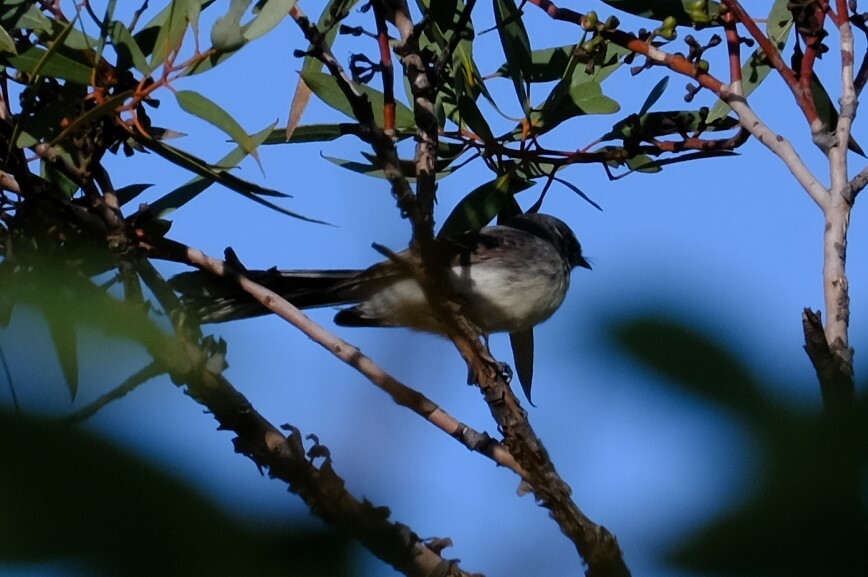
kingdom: Animalia
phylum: Chordata
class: Aves
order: Passeriformes
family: Rhipiduridae
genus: Rhipidura
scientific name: Rhipidura albiscapa
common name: Grey fantail
